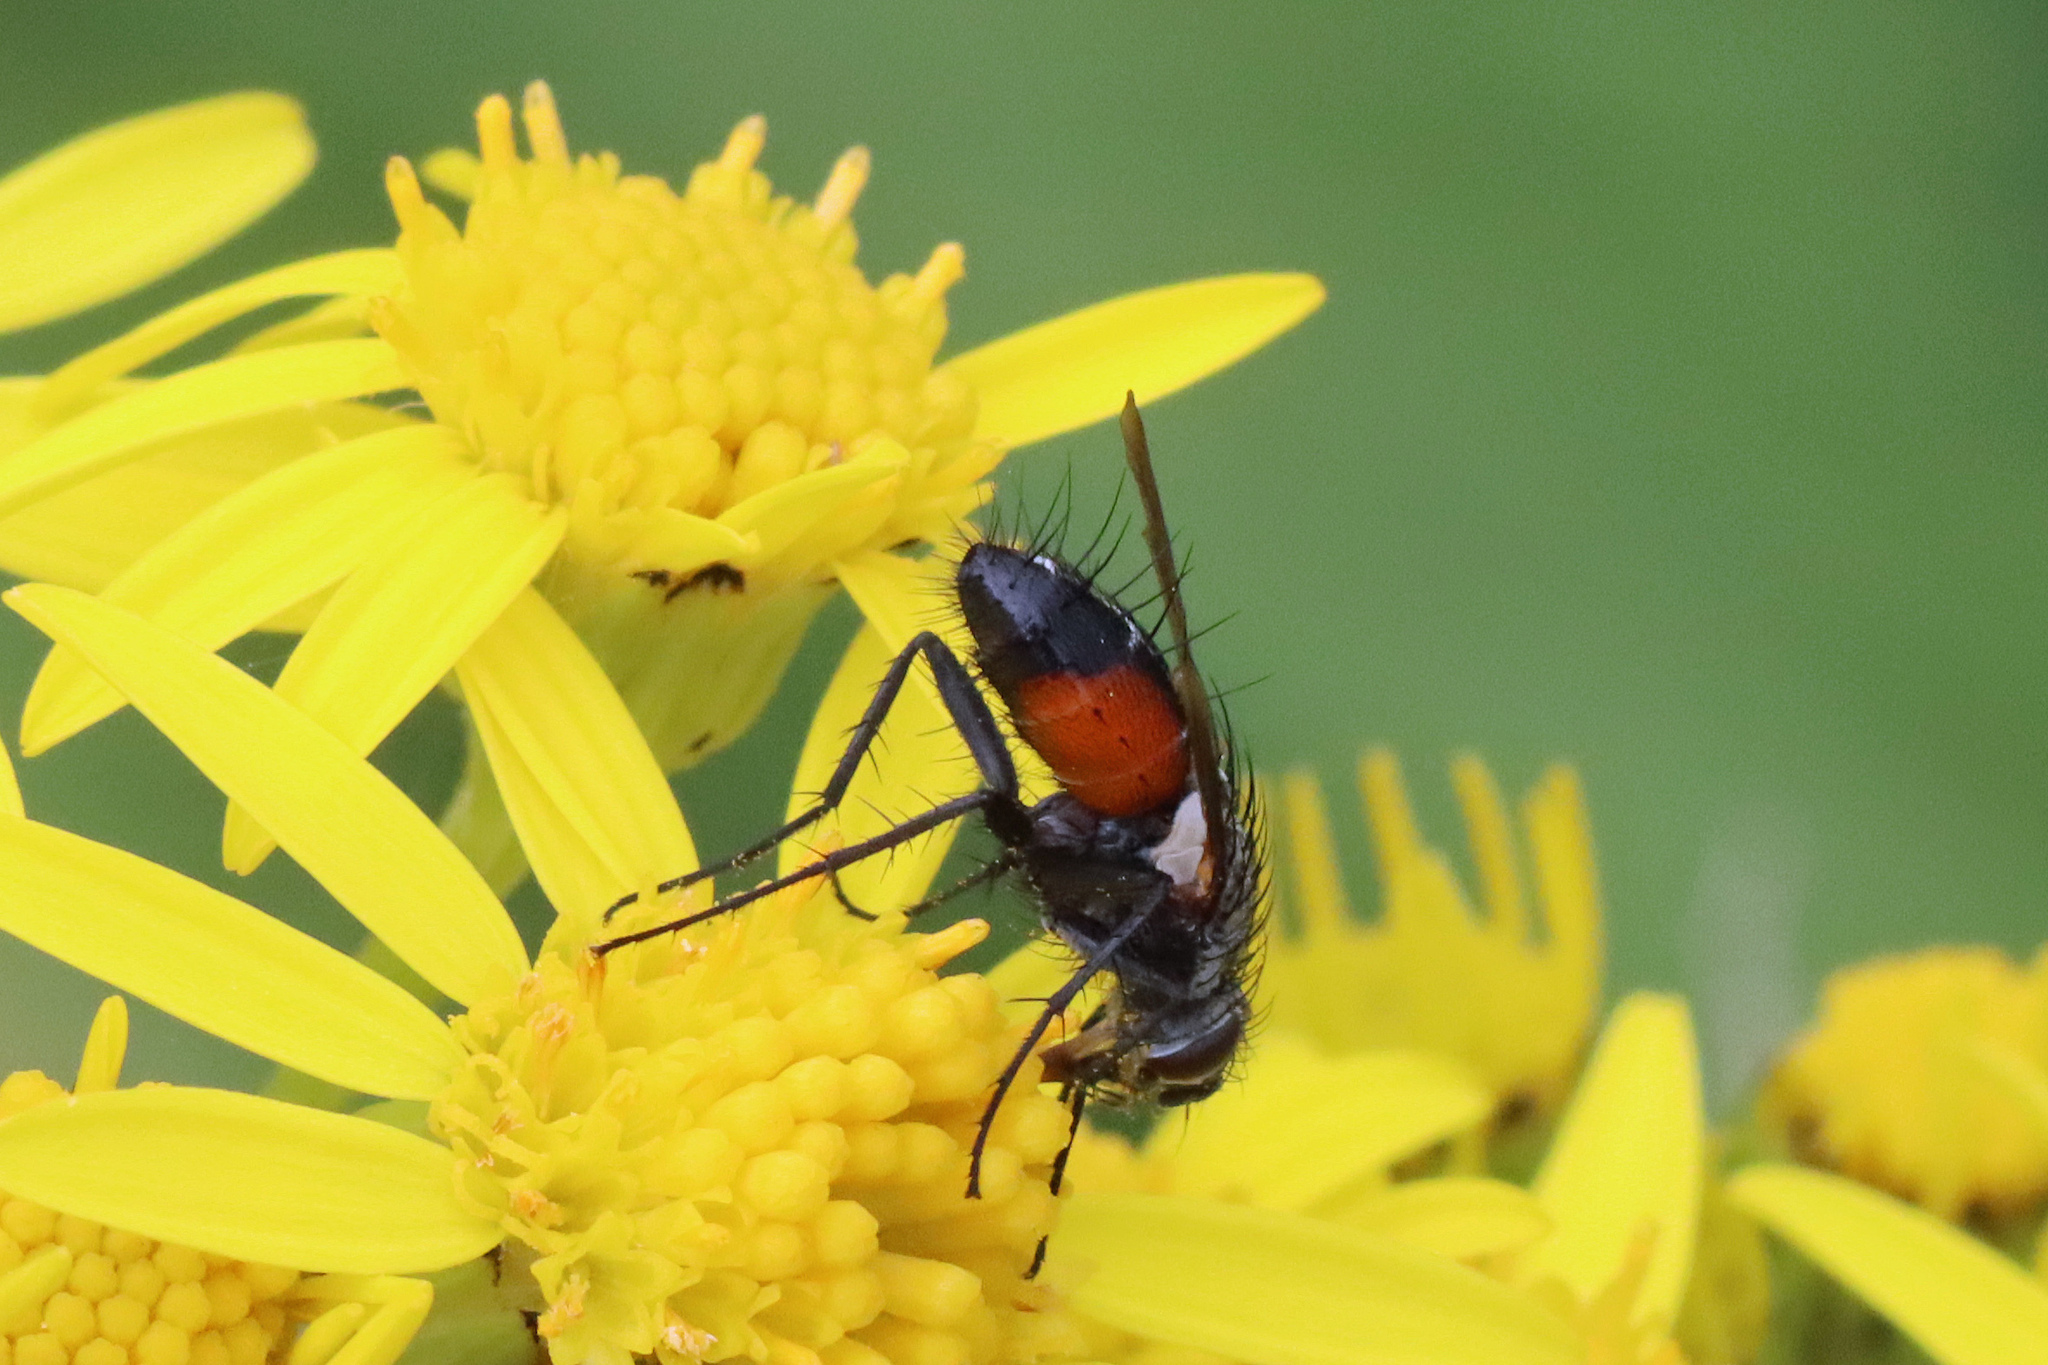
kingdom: Animalia
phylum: Arthropoda
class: Insecta
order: Diptera
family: Tachinidae
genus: Eriothrix
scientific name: Eriothrix rufomaculatus
